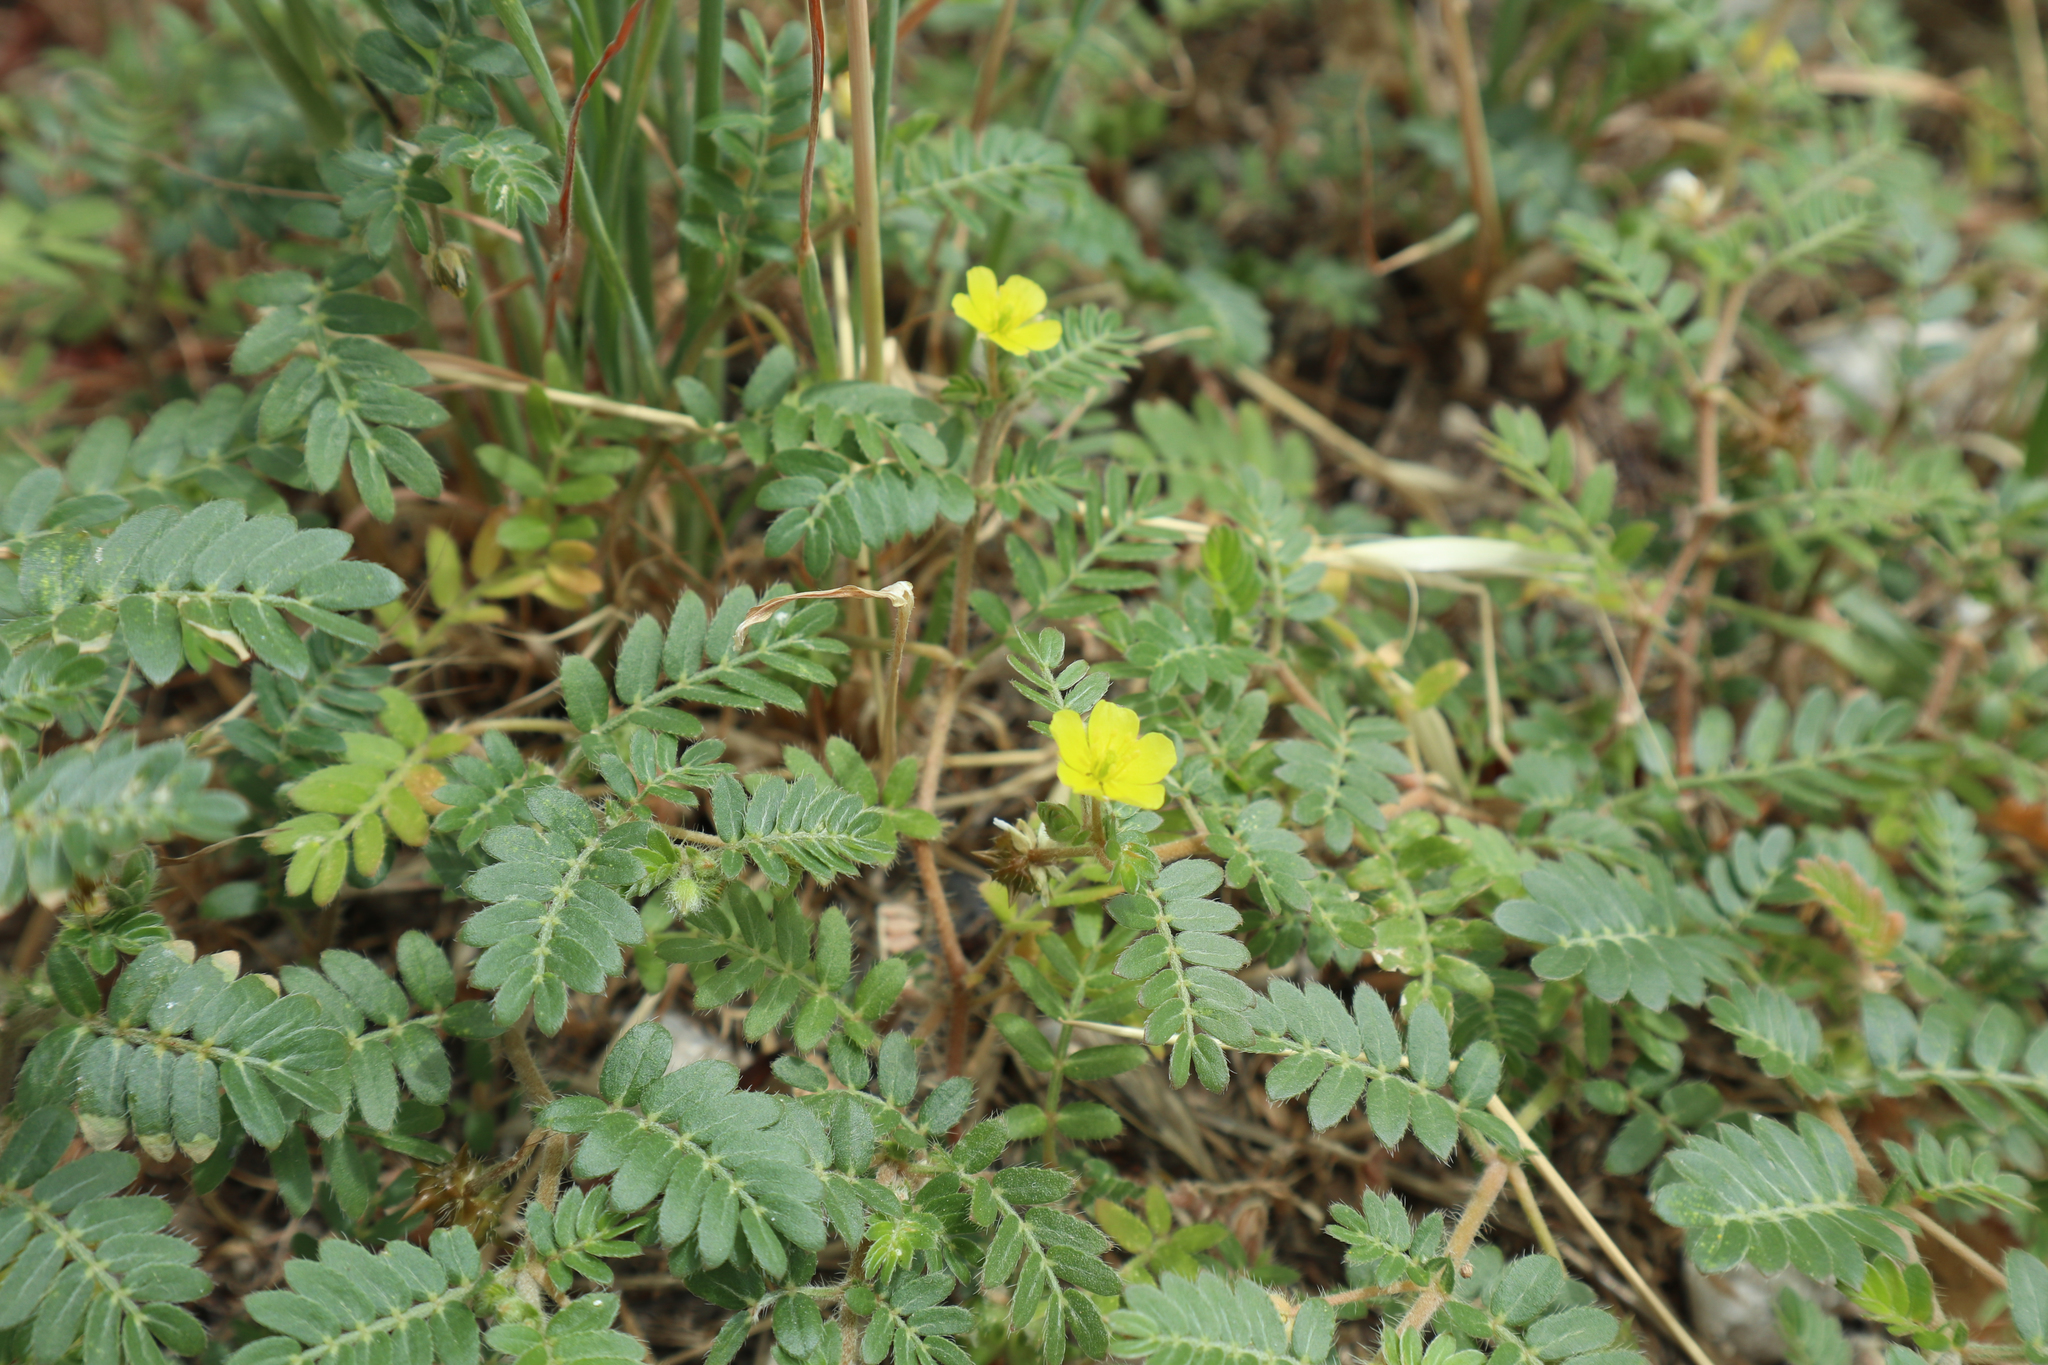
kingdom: Plantae
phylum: Tracheophyta
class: Magnoliopsida
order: Zygophyllales
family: Zygophyllaceae
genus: Tribulus
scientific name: Tribulus terrestris
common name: Puncturevine
